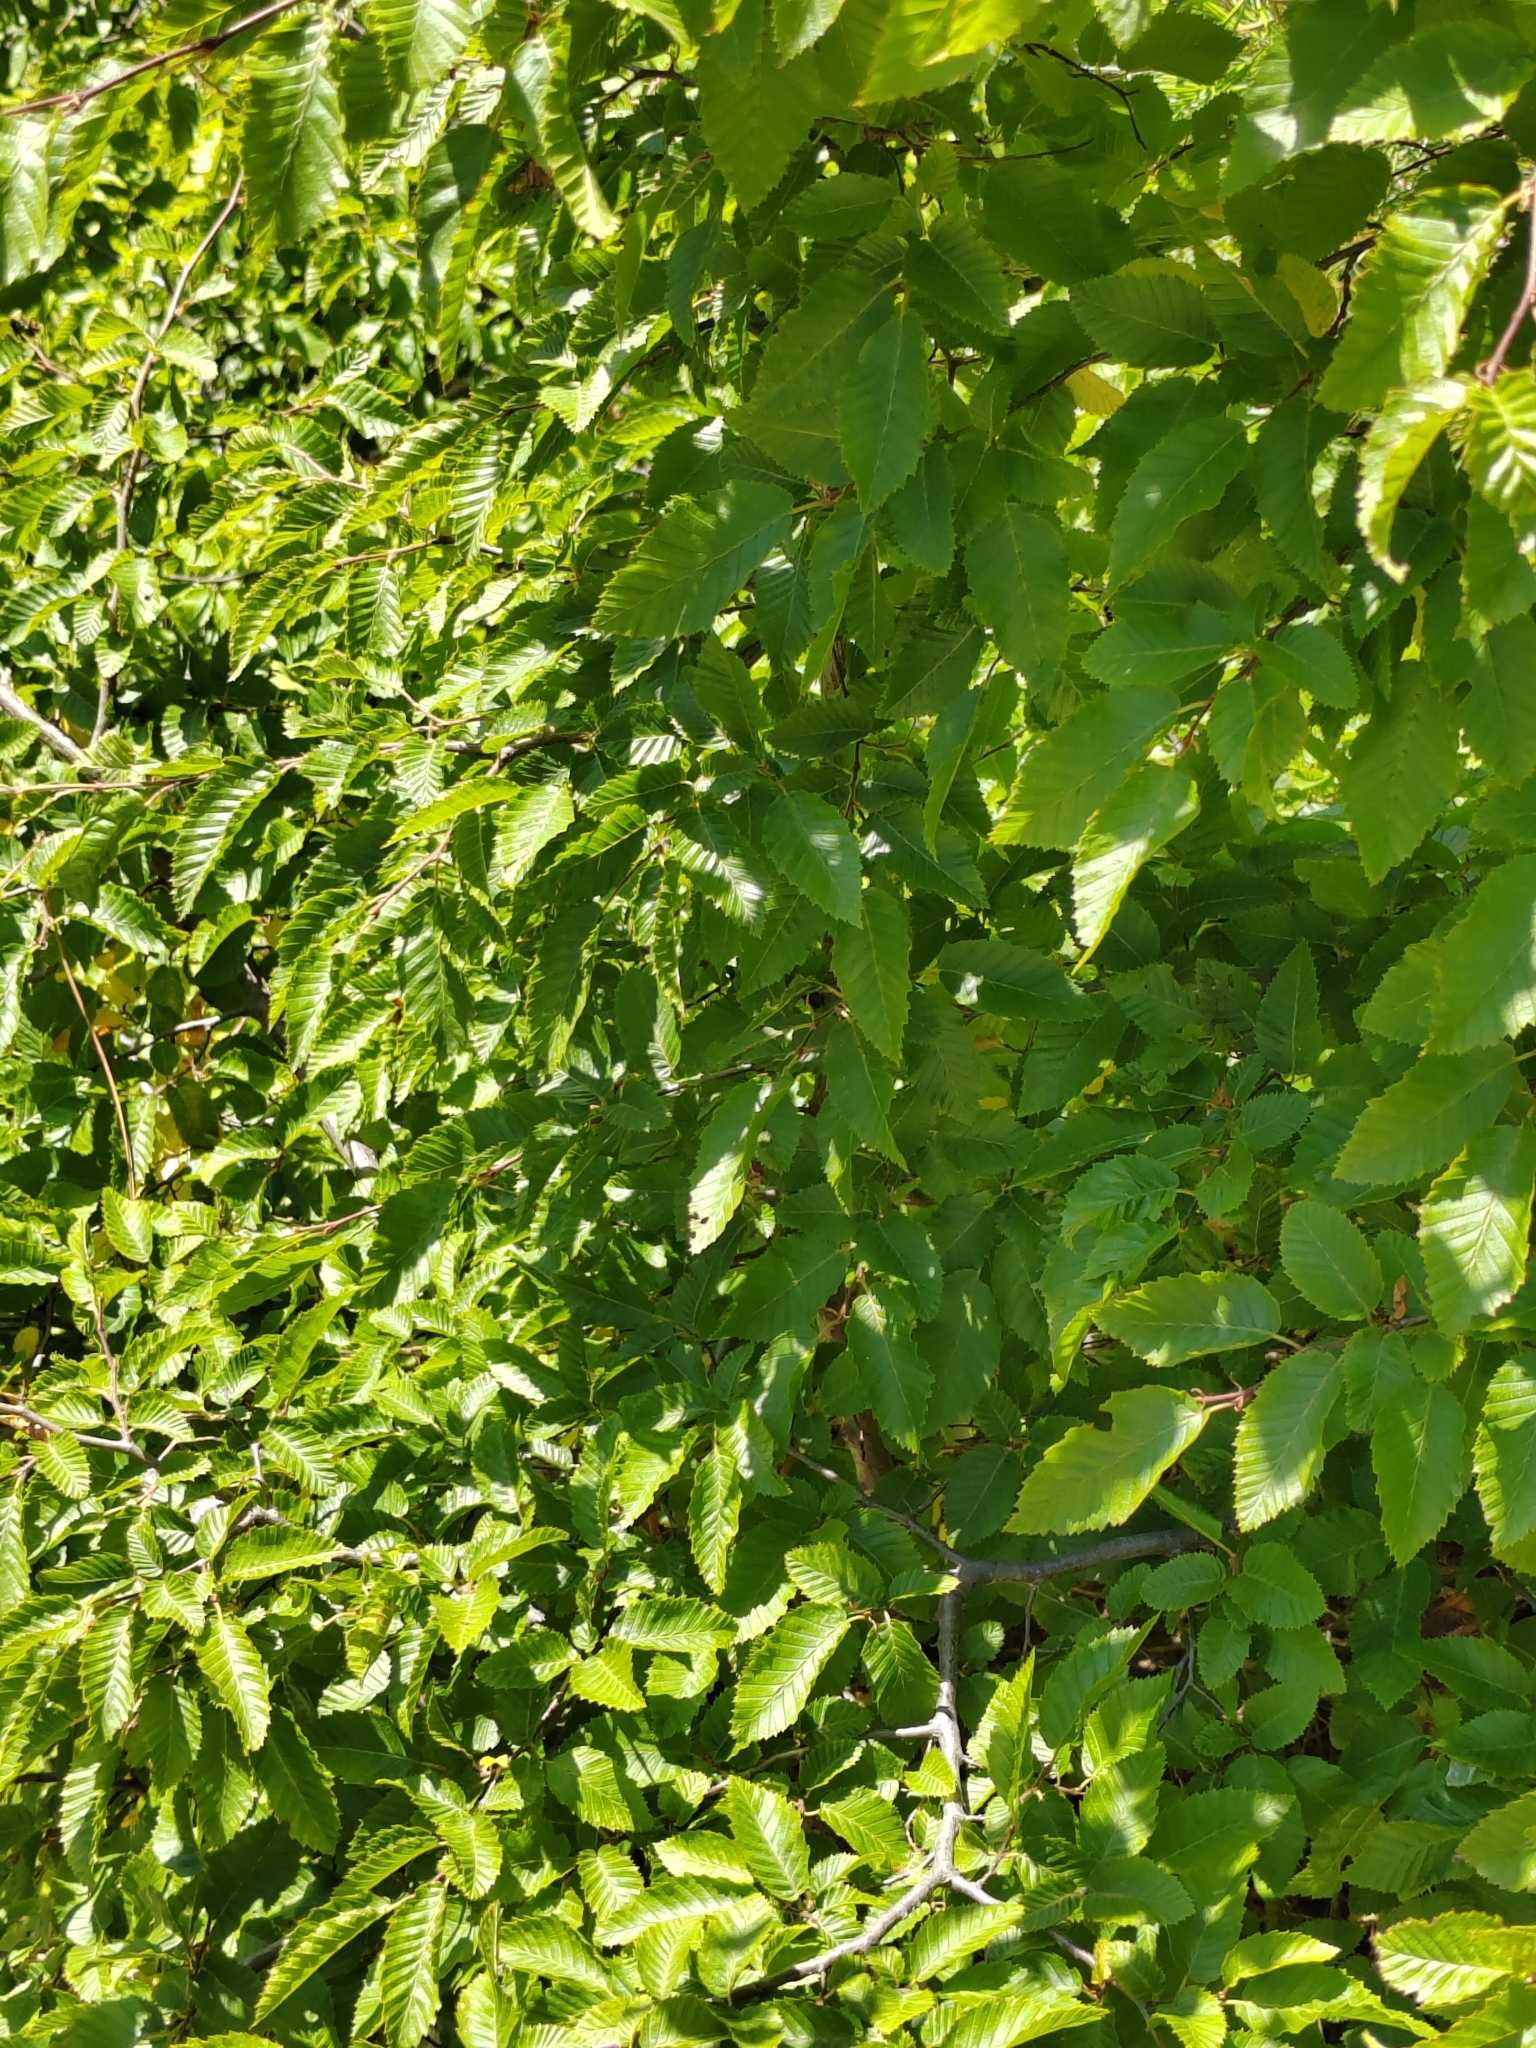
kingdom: Plantae
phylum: Tracheophyta
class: Magnoliopsida
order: Fagales
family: Betulaceae
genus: Carpinus
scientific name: Carpinus orientalis
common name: Eastern hornbeam
